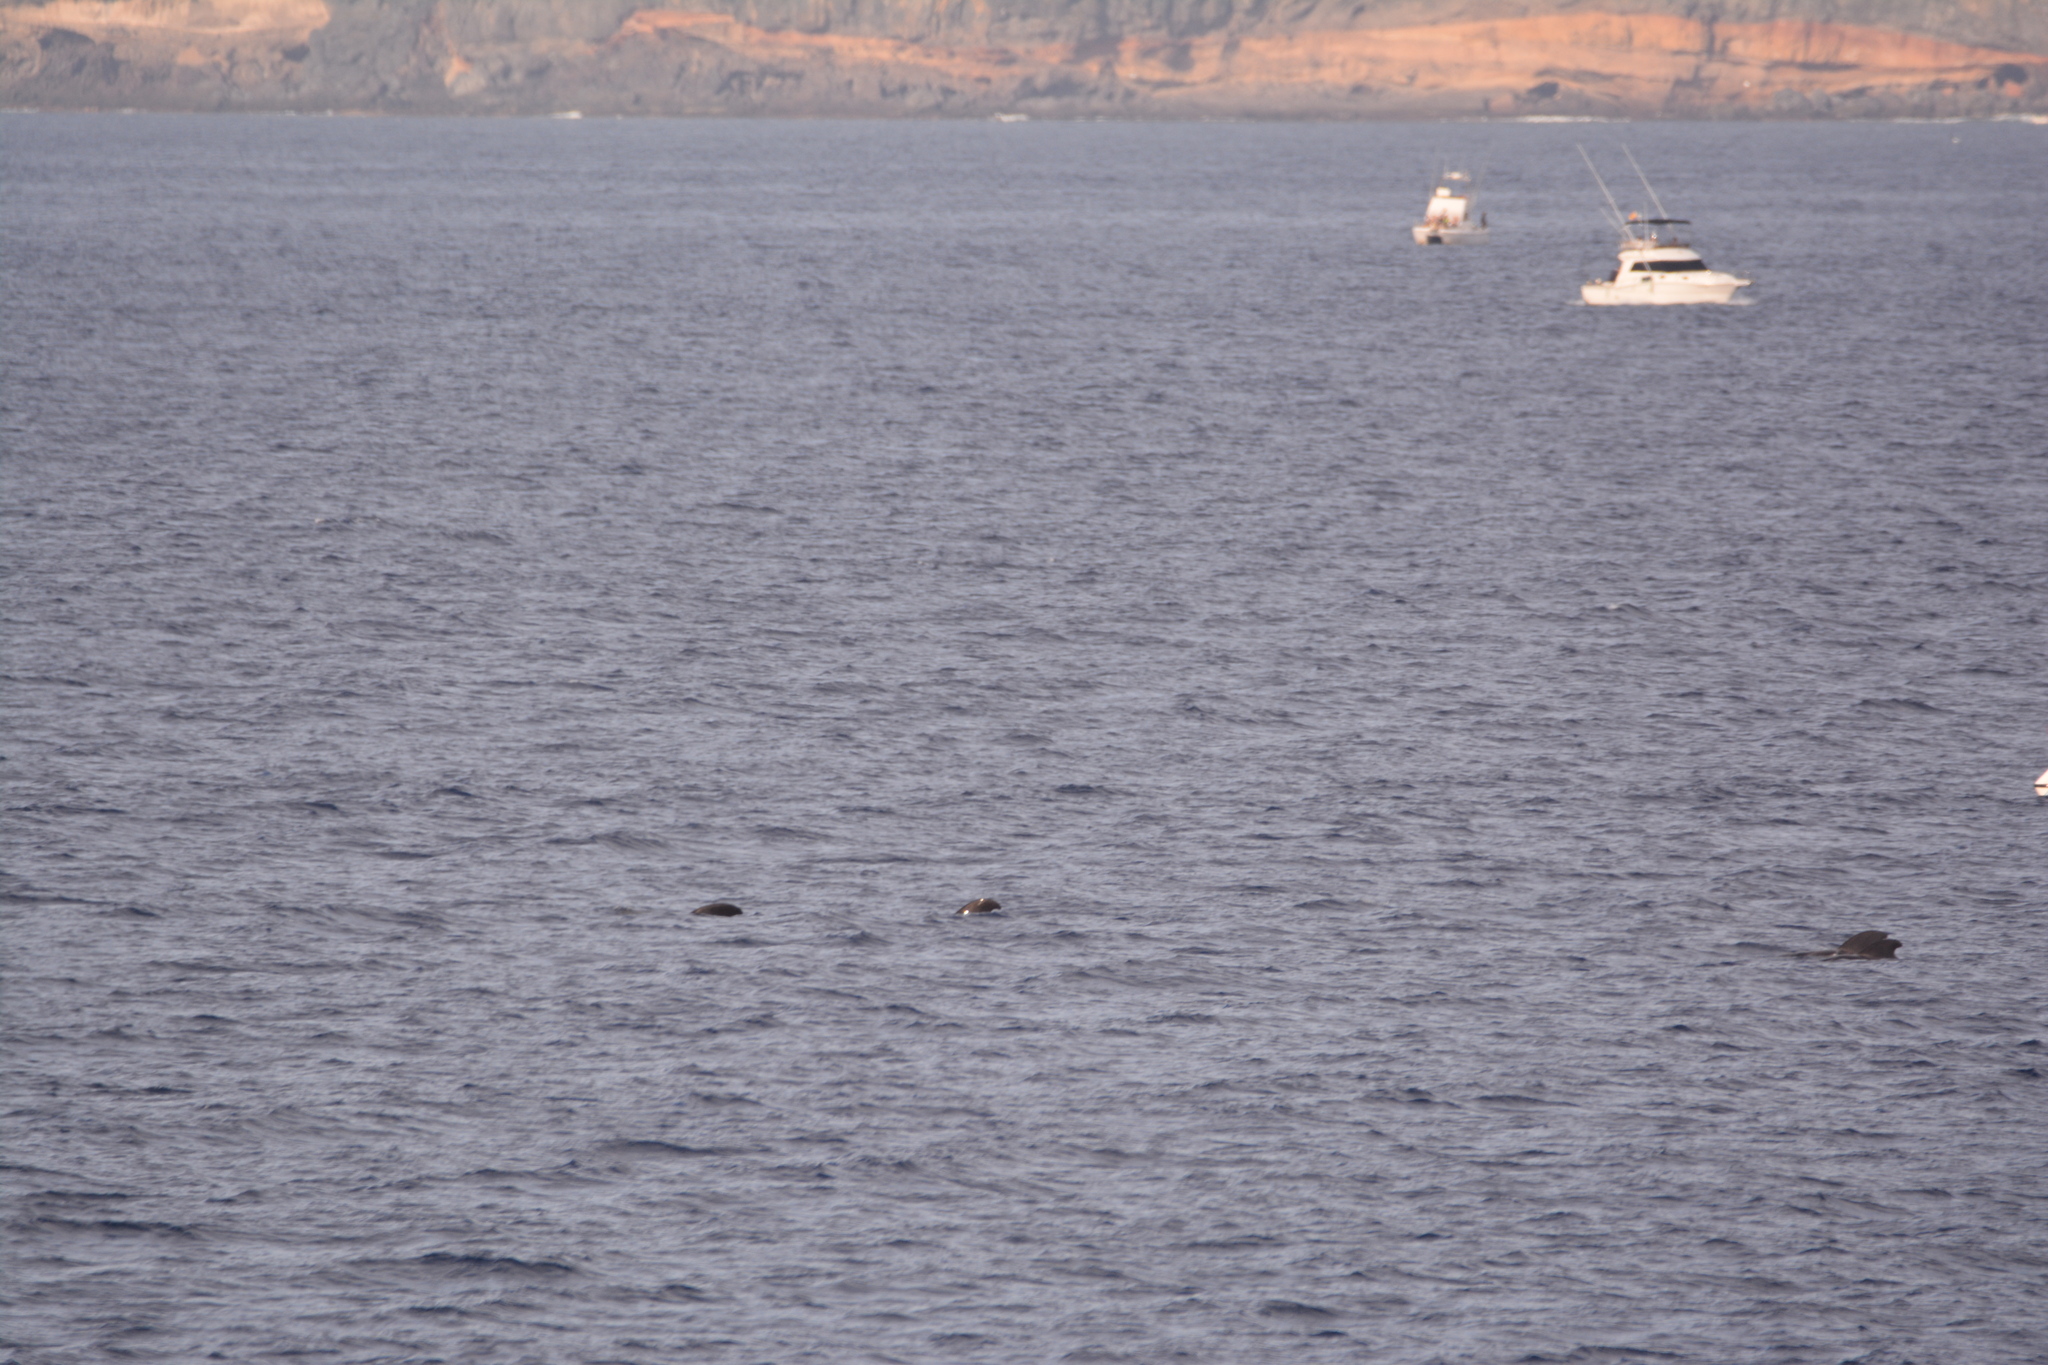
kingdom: Animalia
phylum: Chordata
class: Mammalia
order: Cetacea
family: Delphinidae
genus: Globicephala
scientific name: Globicephala macrorhynchus
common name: Short-finned pilot whale
